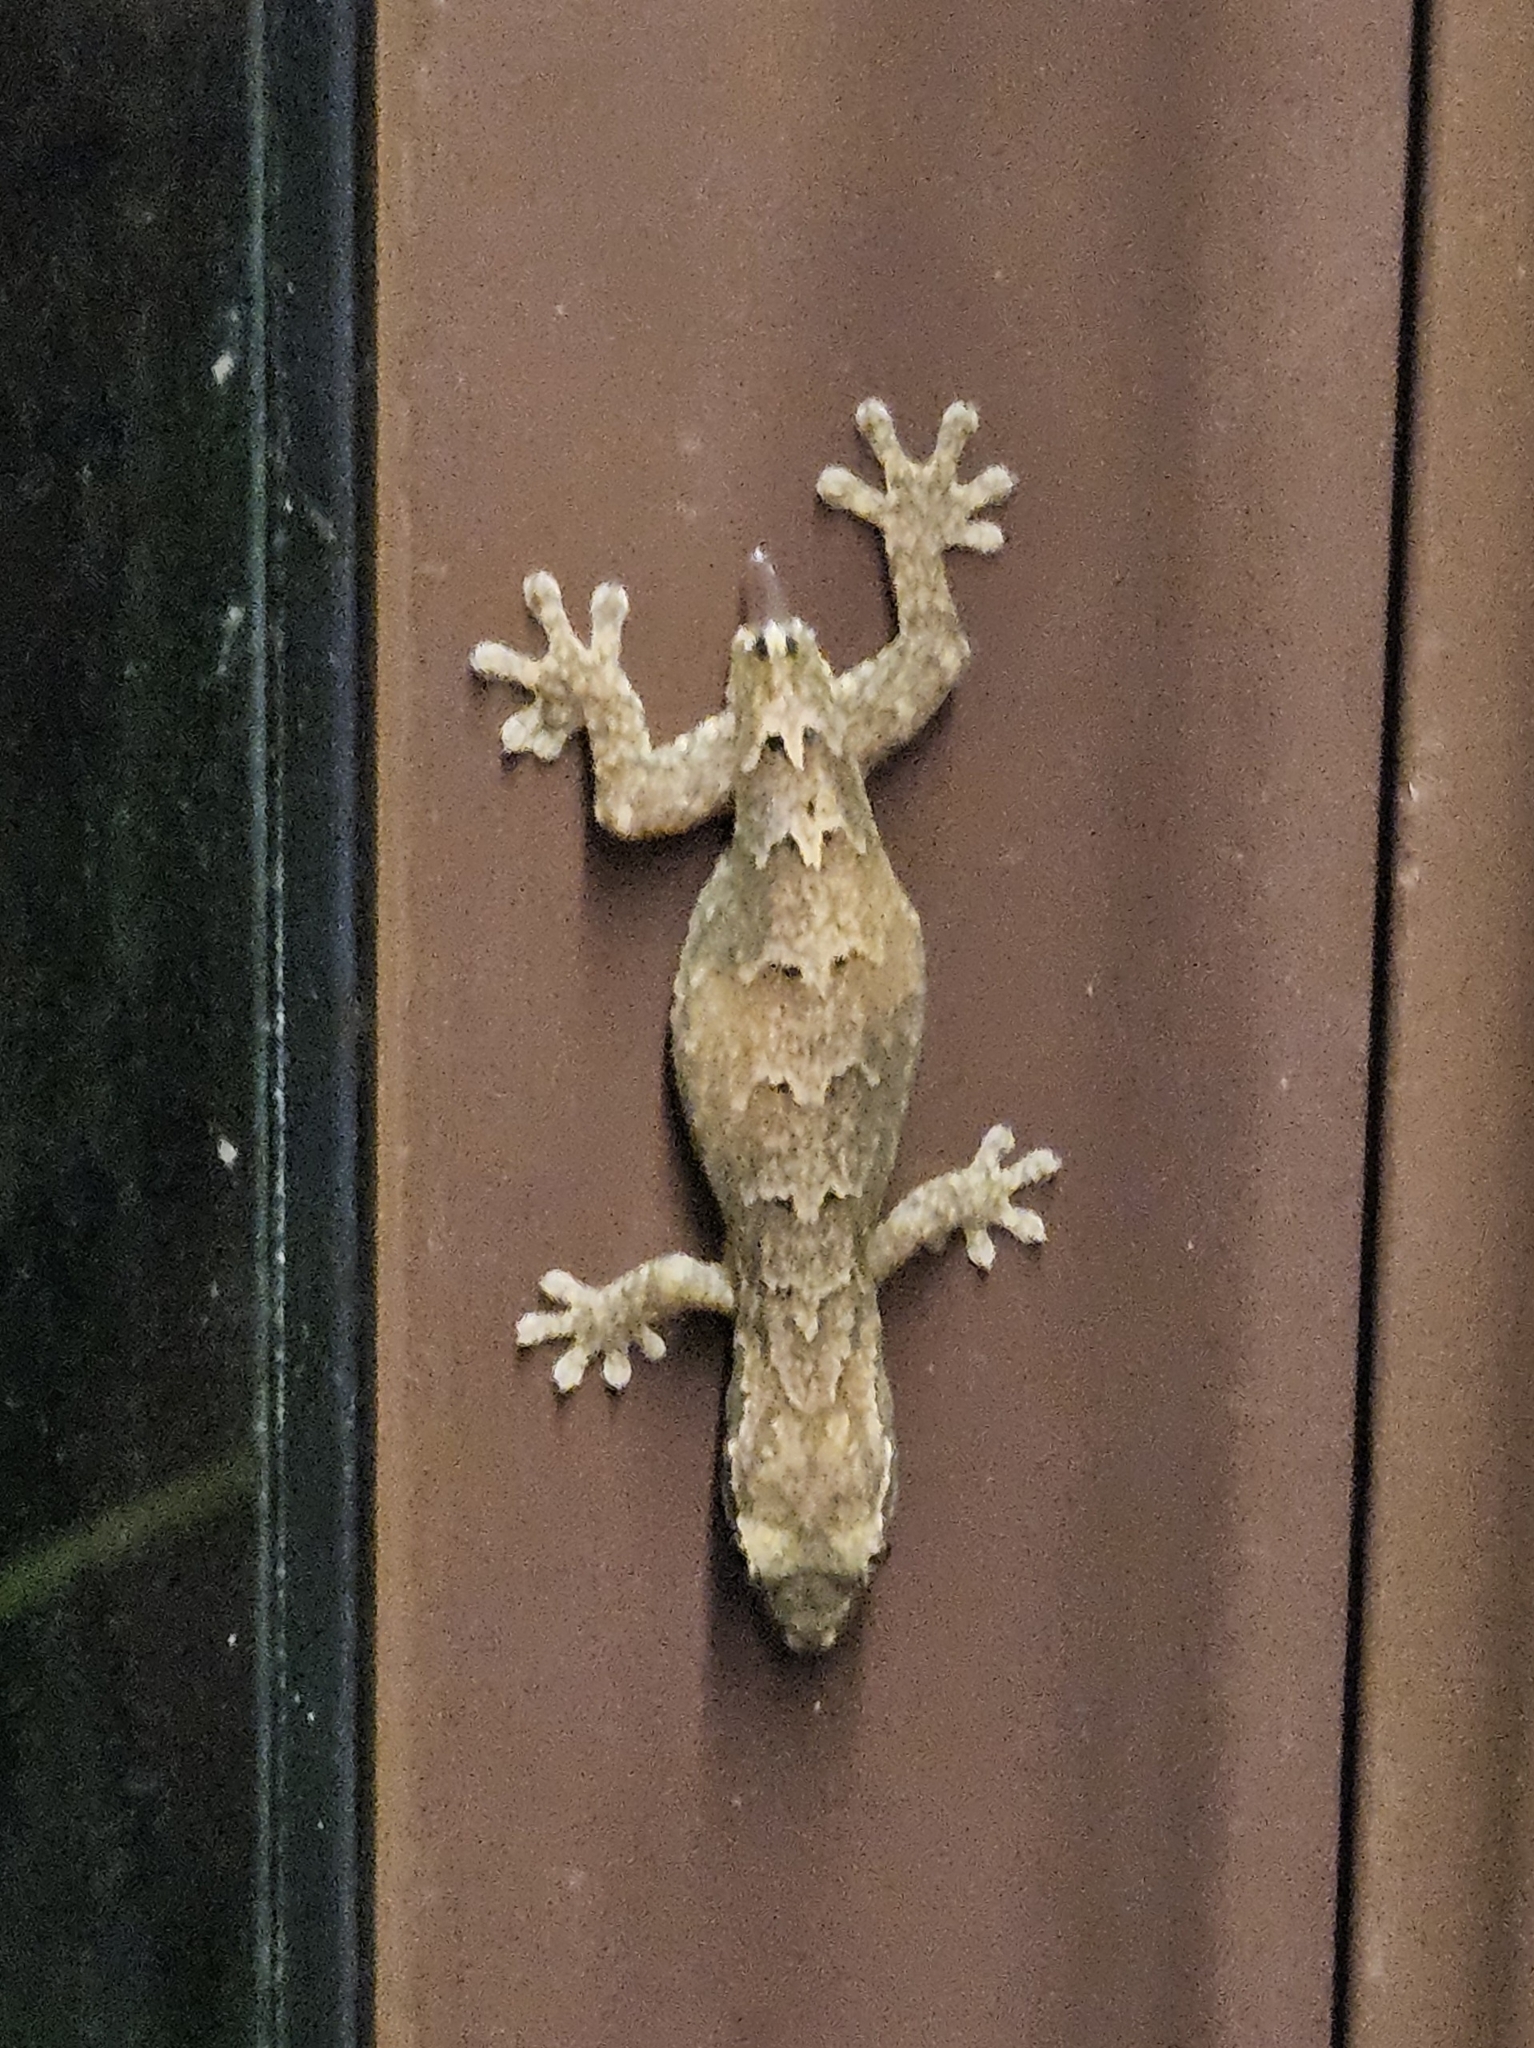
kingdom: Animalia
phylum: Chordata
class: Squamata
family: Gekkonidae
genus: Lepidodactylus
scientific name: Lepidodactylus lugubris
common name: Mourning gecko
